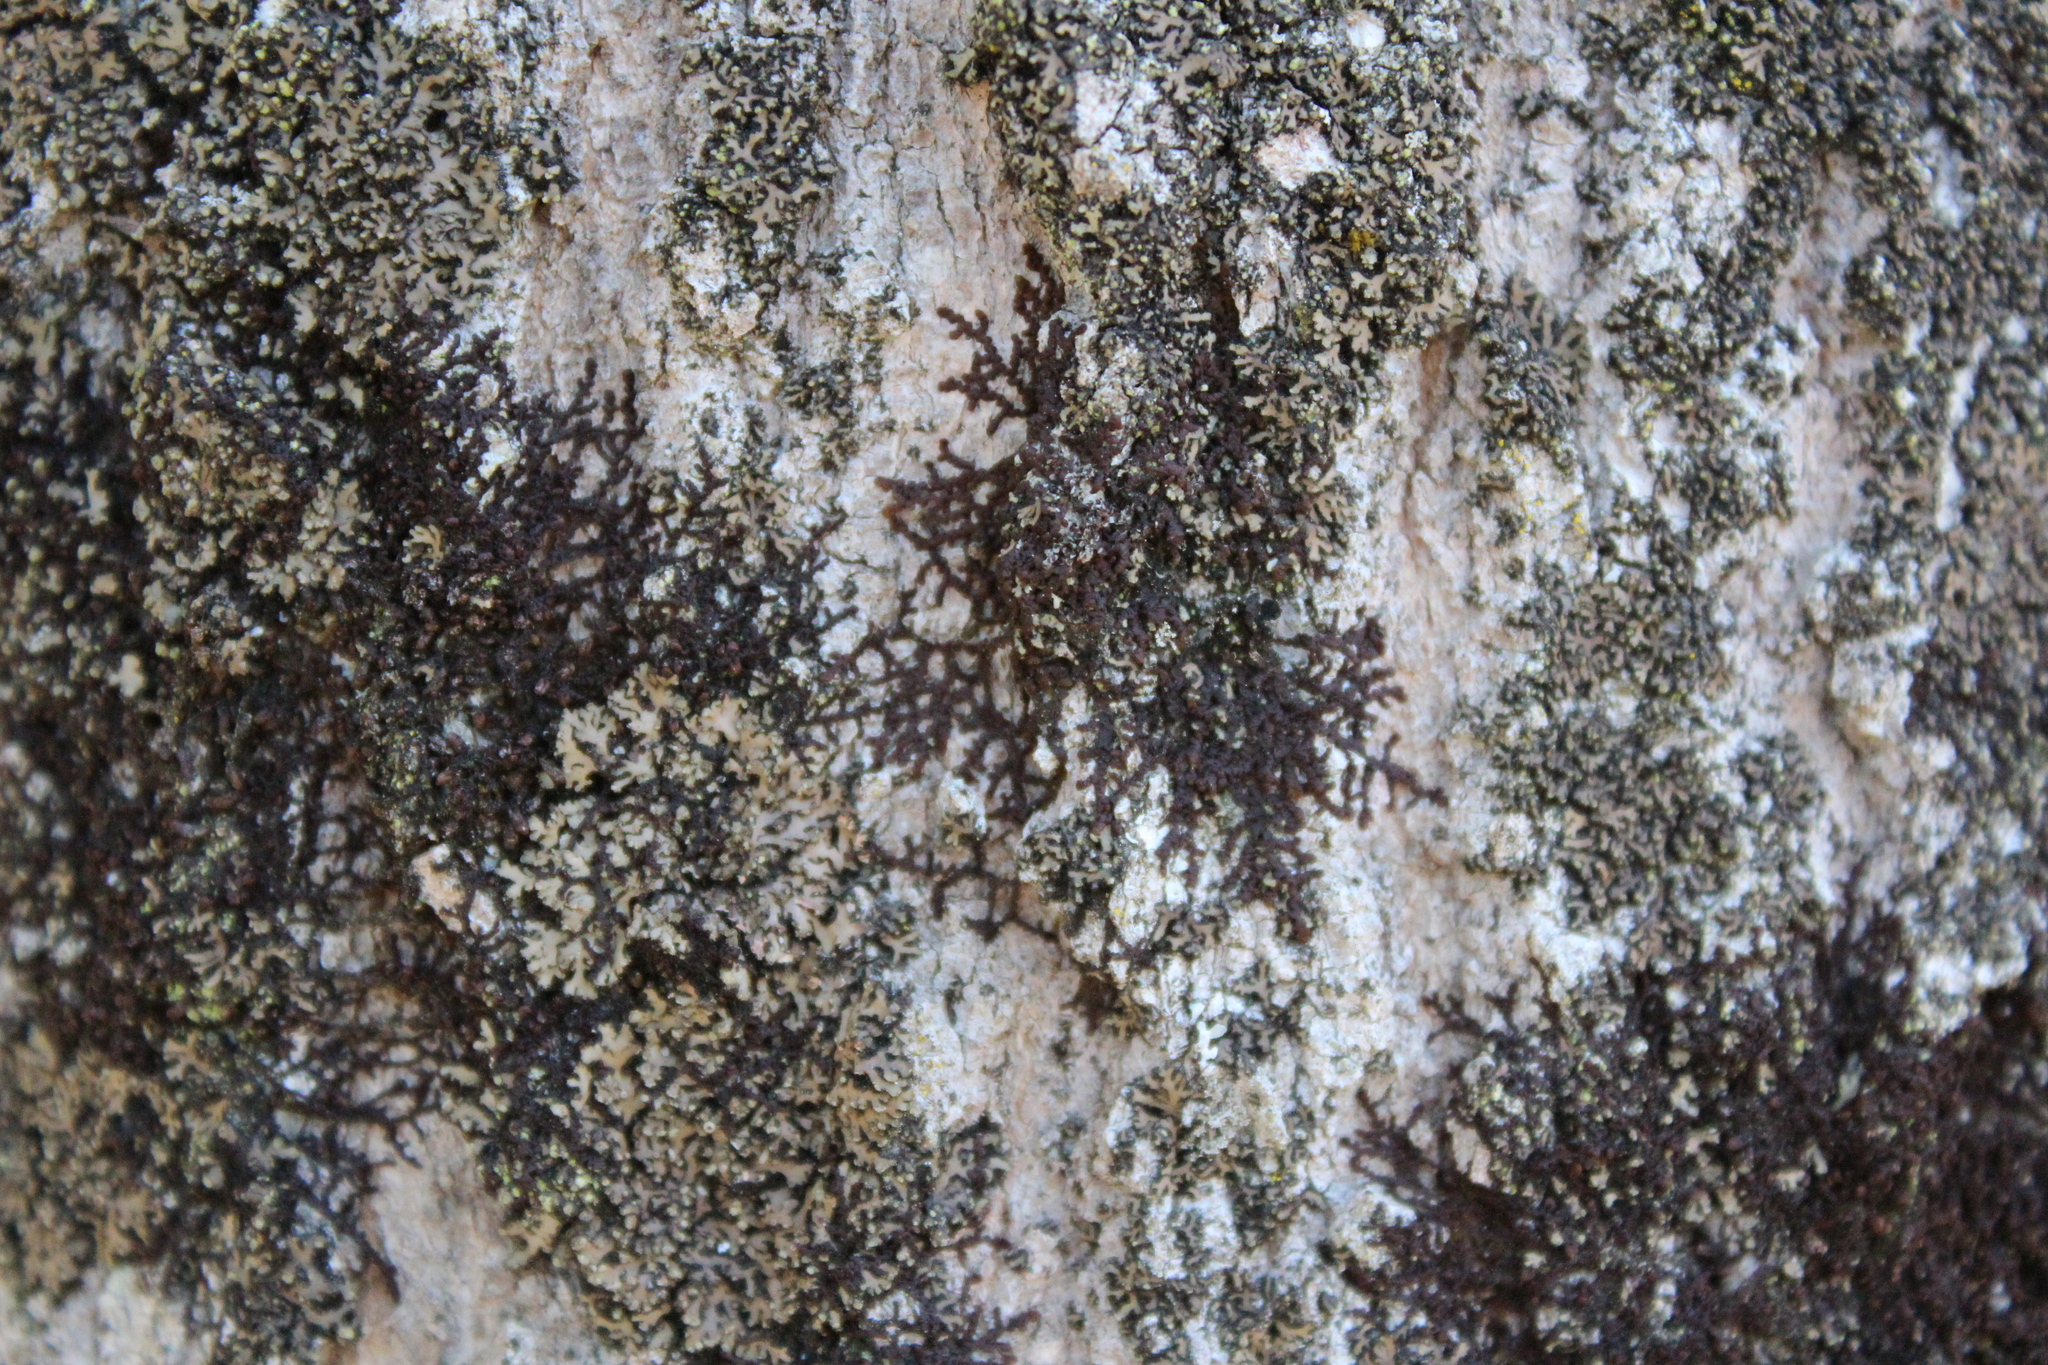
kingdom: Plantae
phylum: Marchantiophyta
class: Jungermanniopsida
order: Porellales
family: Frullaniaceae
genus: Frullania
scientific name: Frullania eboracensis
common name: New york scalewort
